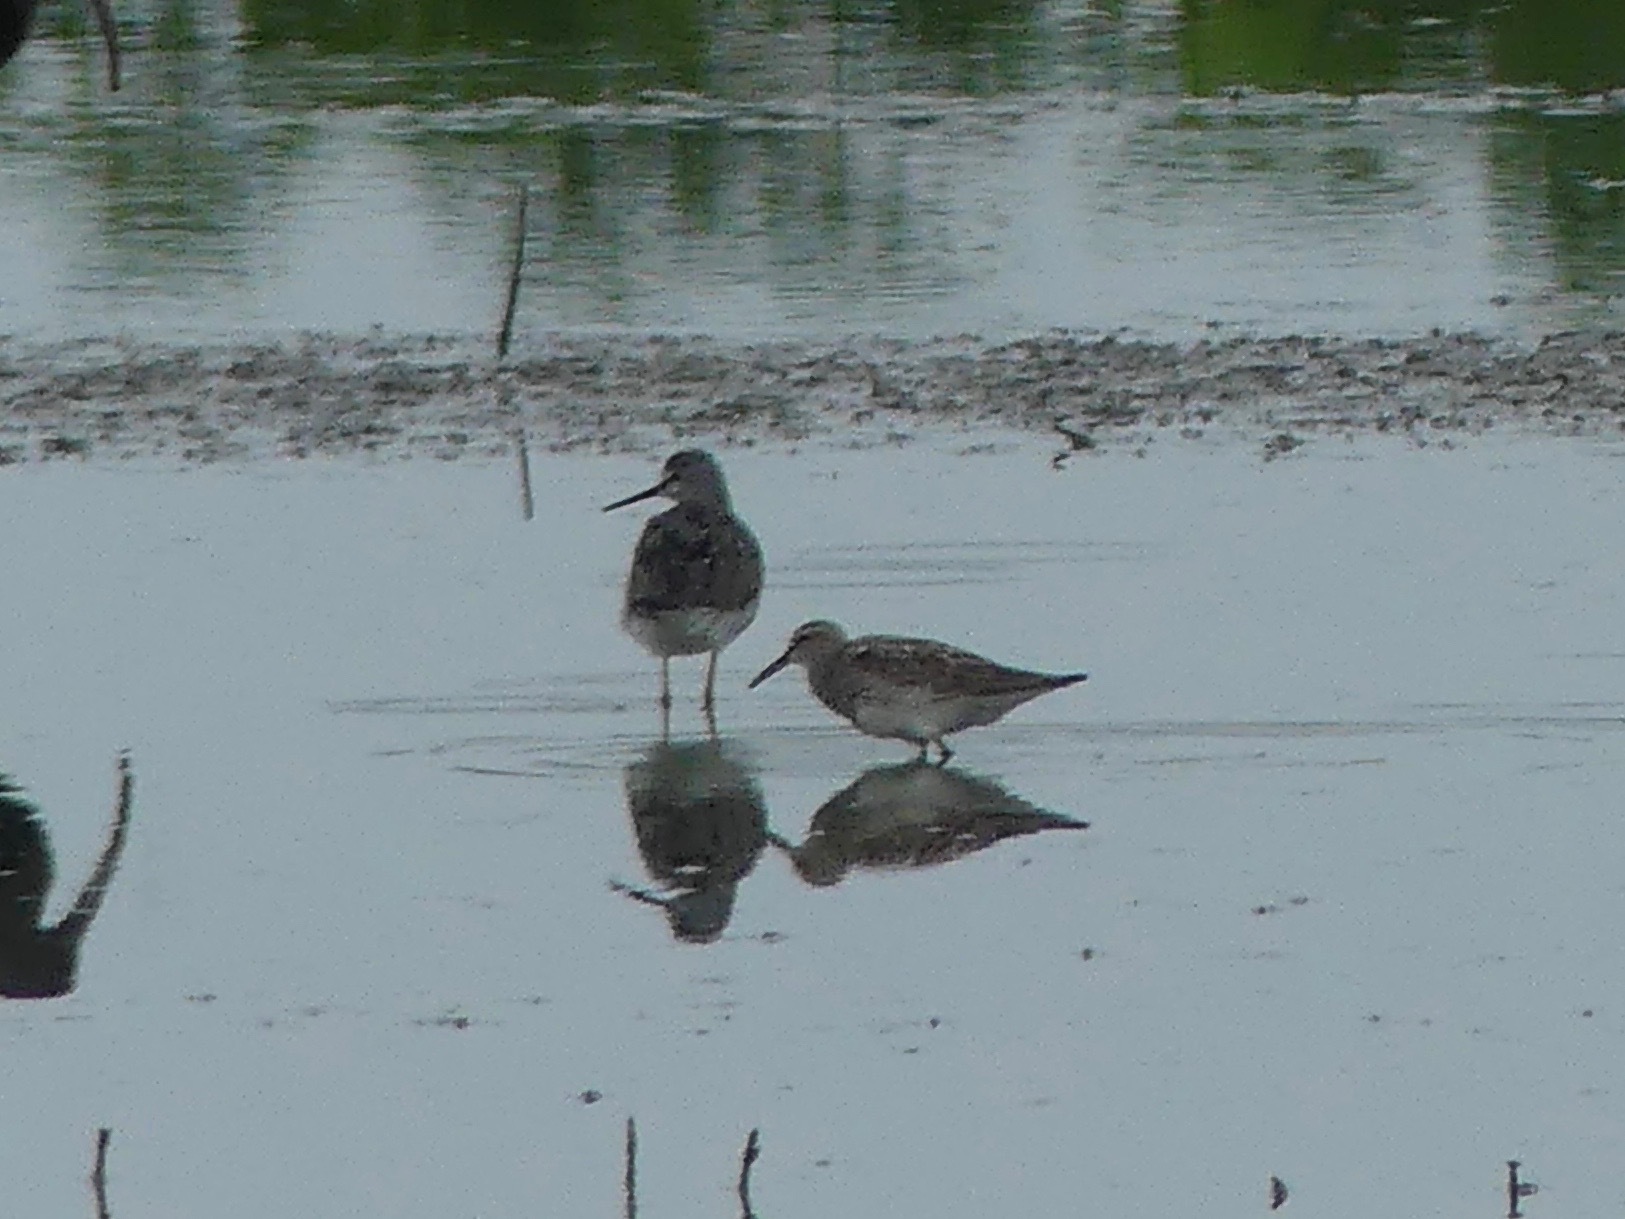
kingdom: Animalia
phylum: Chordata
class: Aves
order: Charadriiformes
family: Scolopacidae
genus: Calidris
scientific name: Calidris melanotos
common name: Pectoral sandpiper
